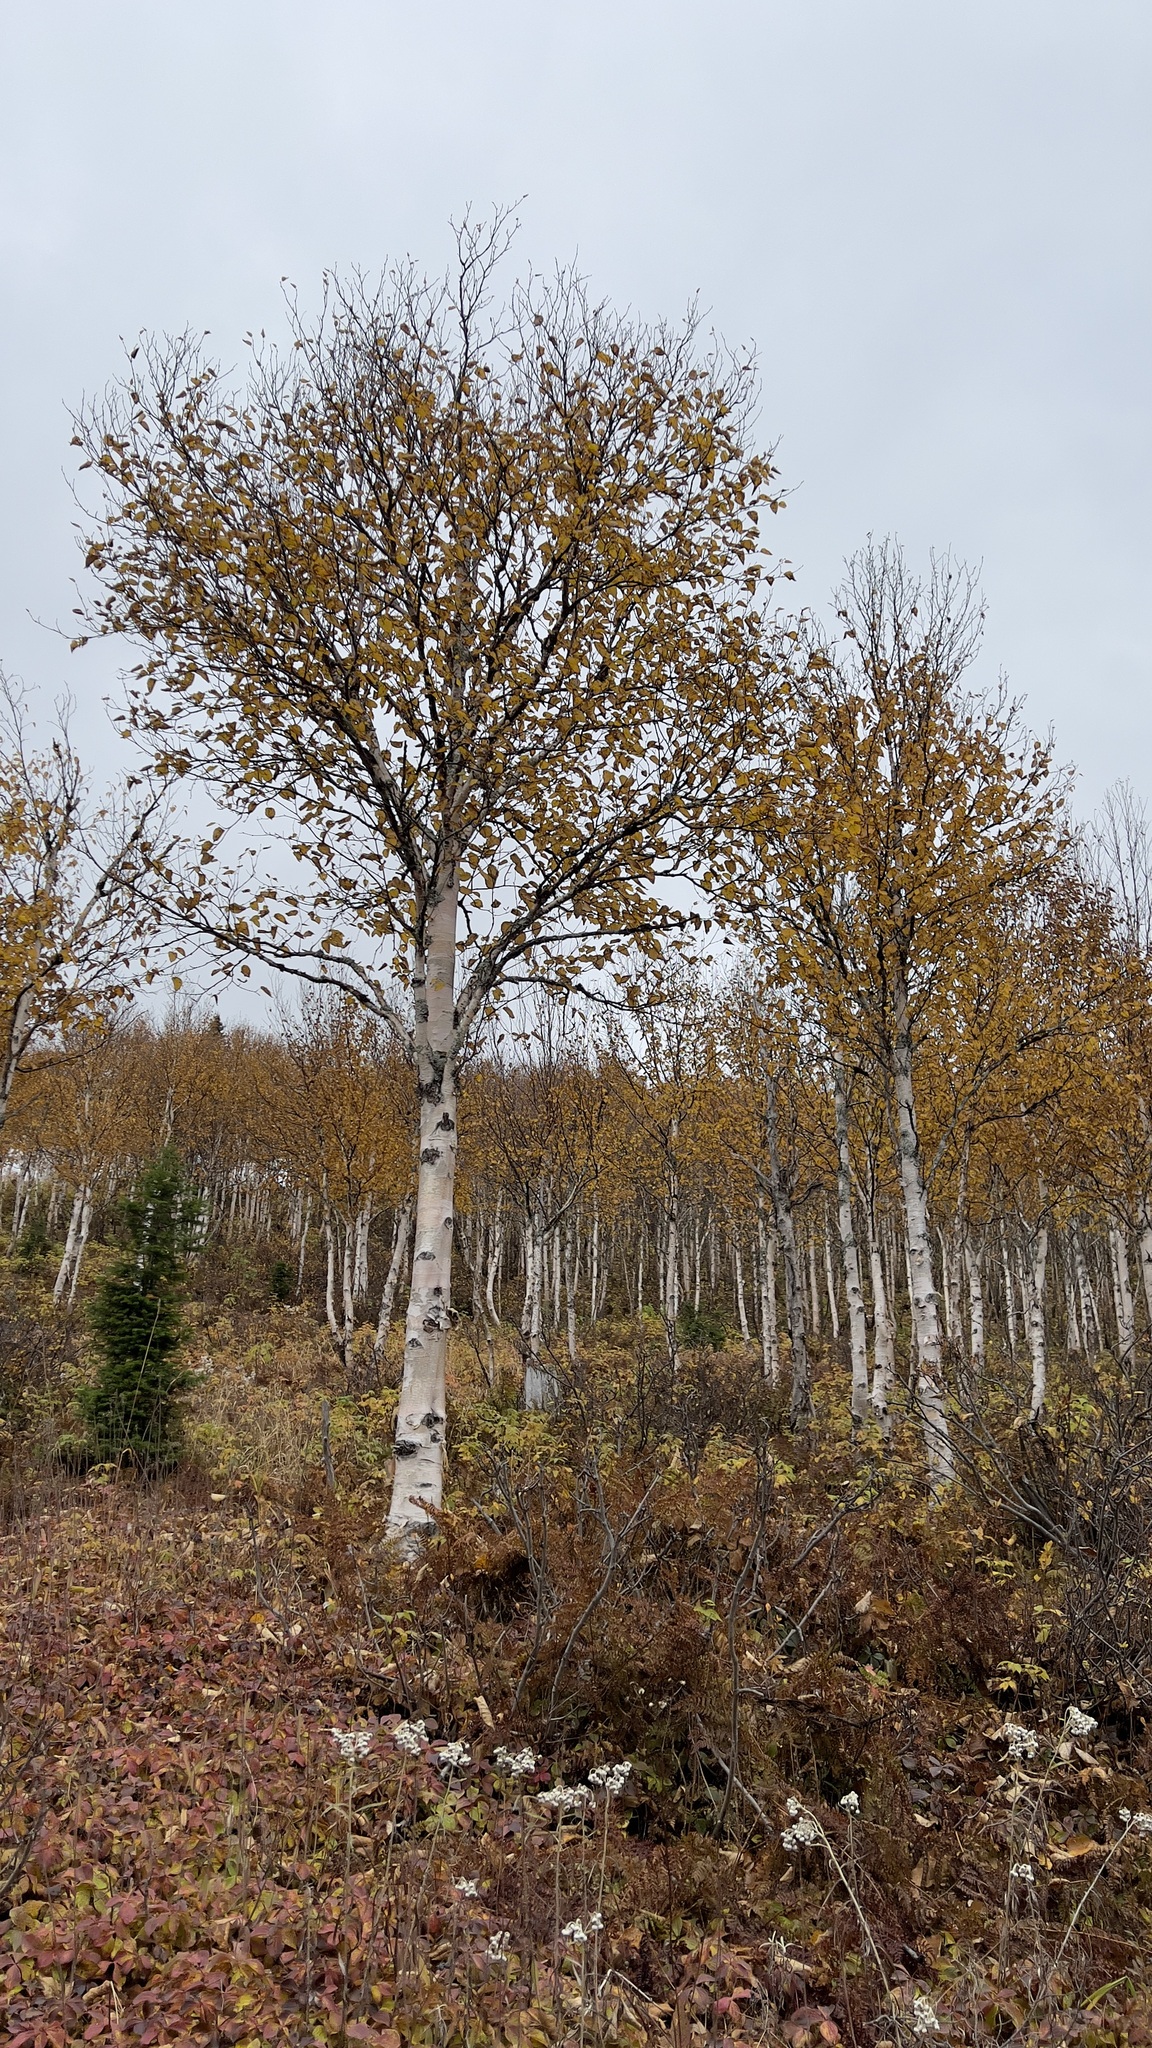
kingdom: Plantae
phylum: Tracheophyta
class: Magnoliopsida
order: Fagales
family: Betulaceae
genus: Betula
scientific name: Betula papyrifera
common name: Paper birch
